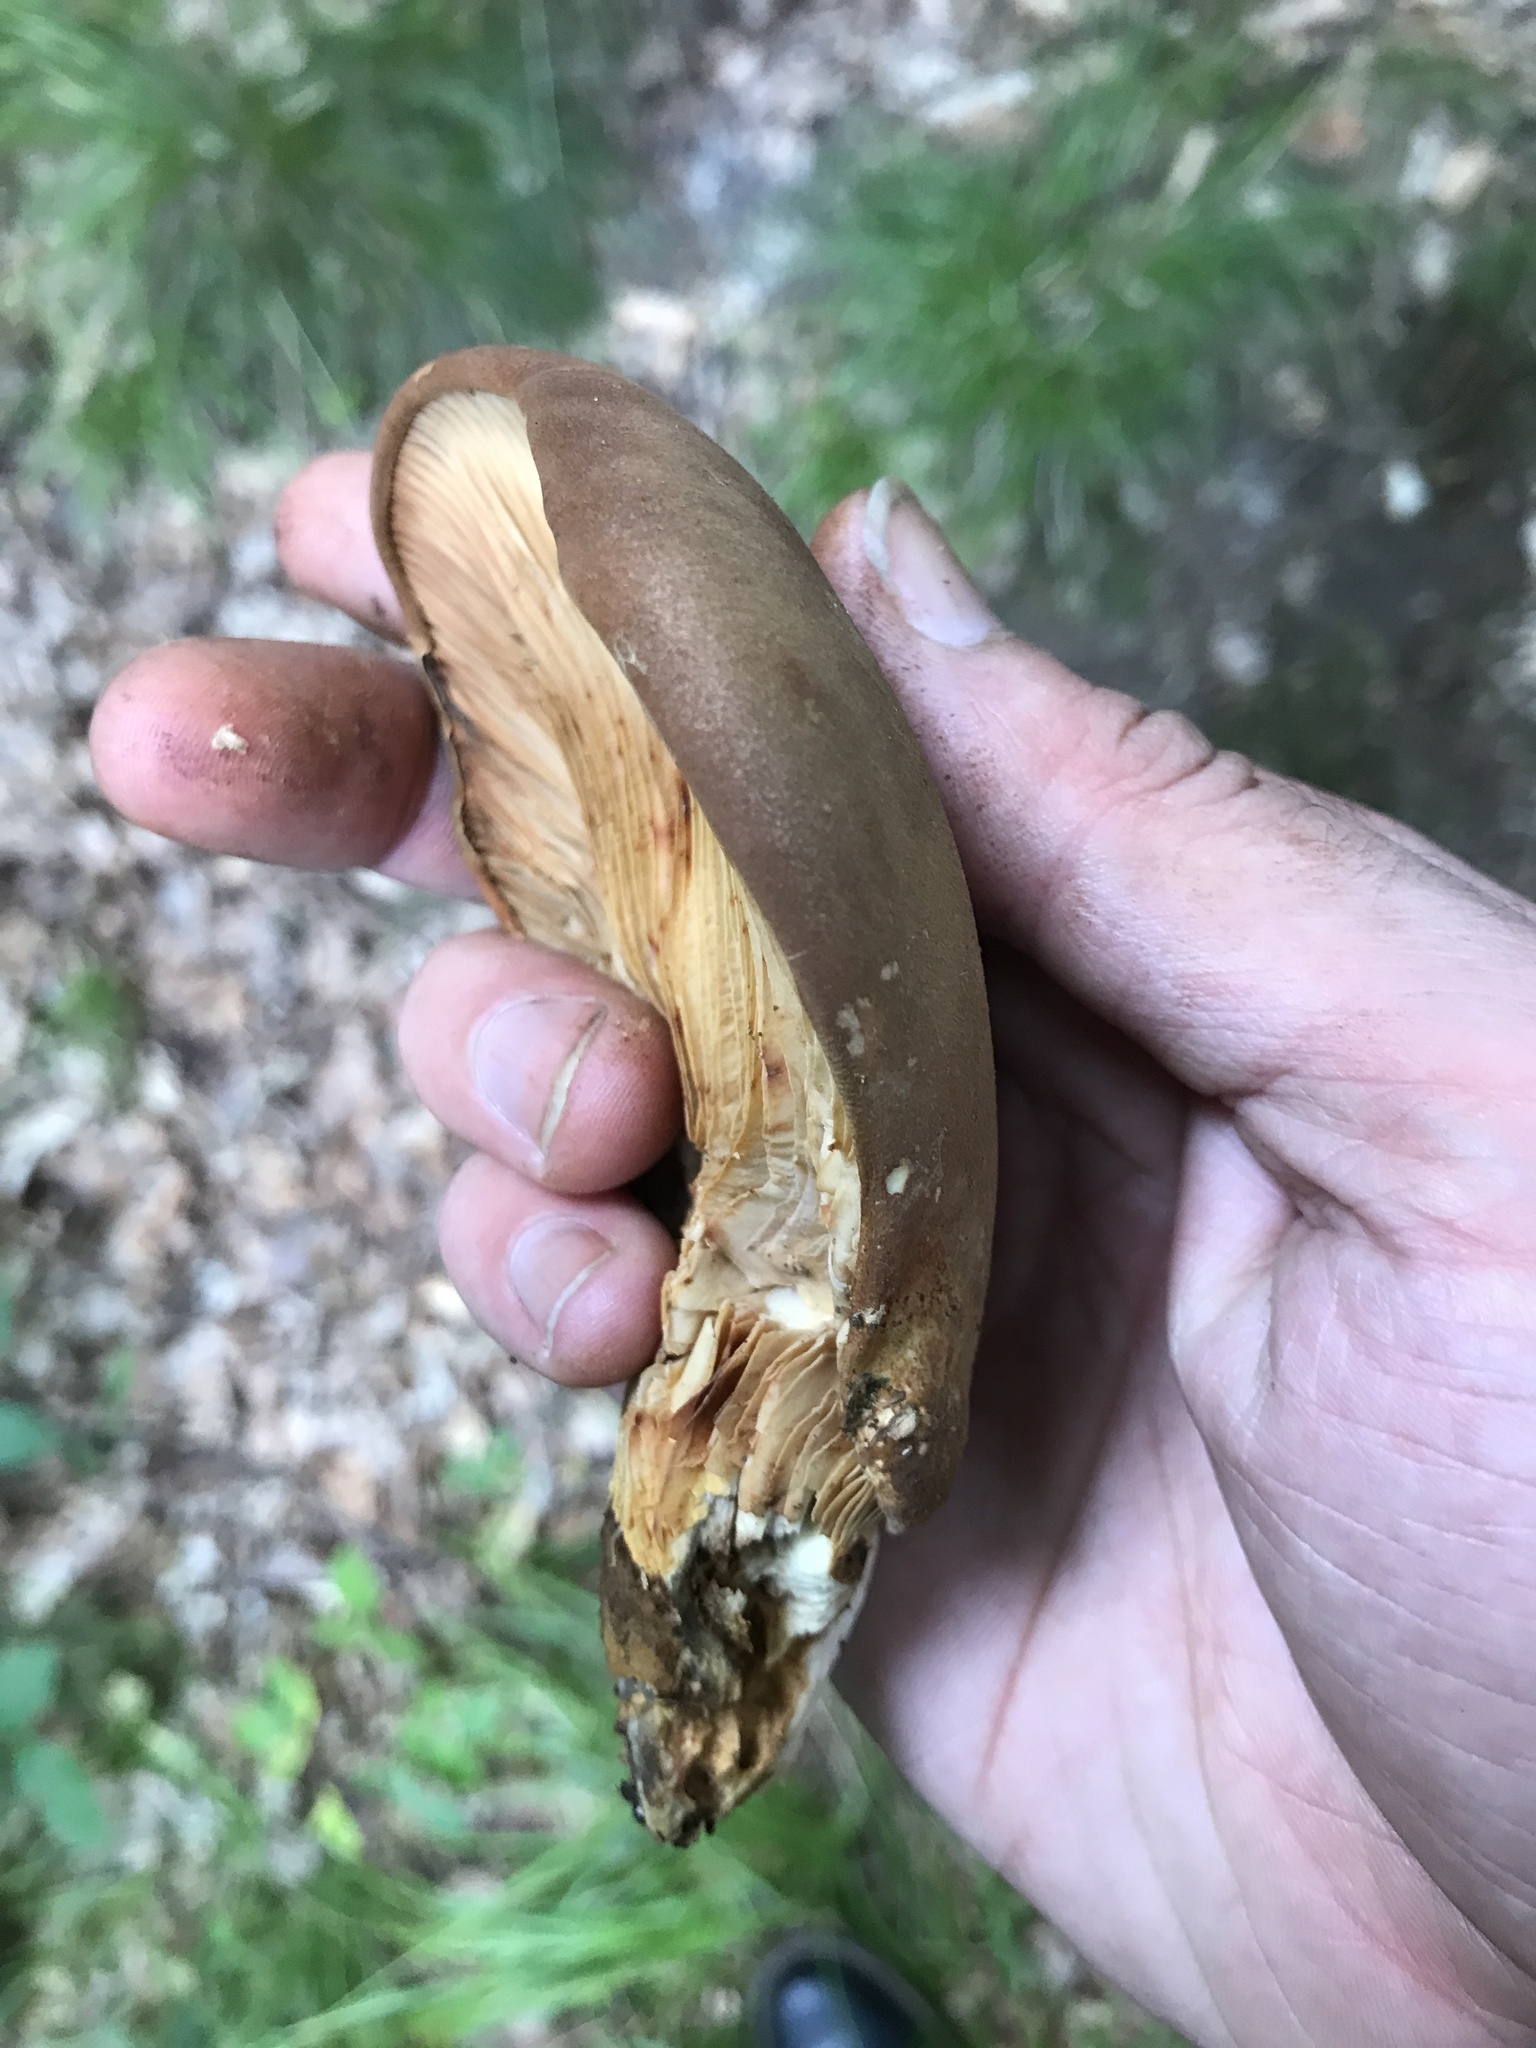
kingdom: Fungi
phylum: Basidiomycota
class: Agaricomycetes
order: Boletales
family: Tapinellaceae
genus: Tapinella
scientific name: Tapinella atrotomentosa
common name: Velvet rollrim
